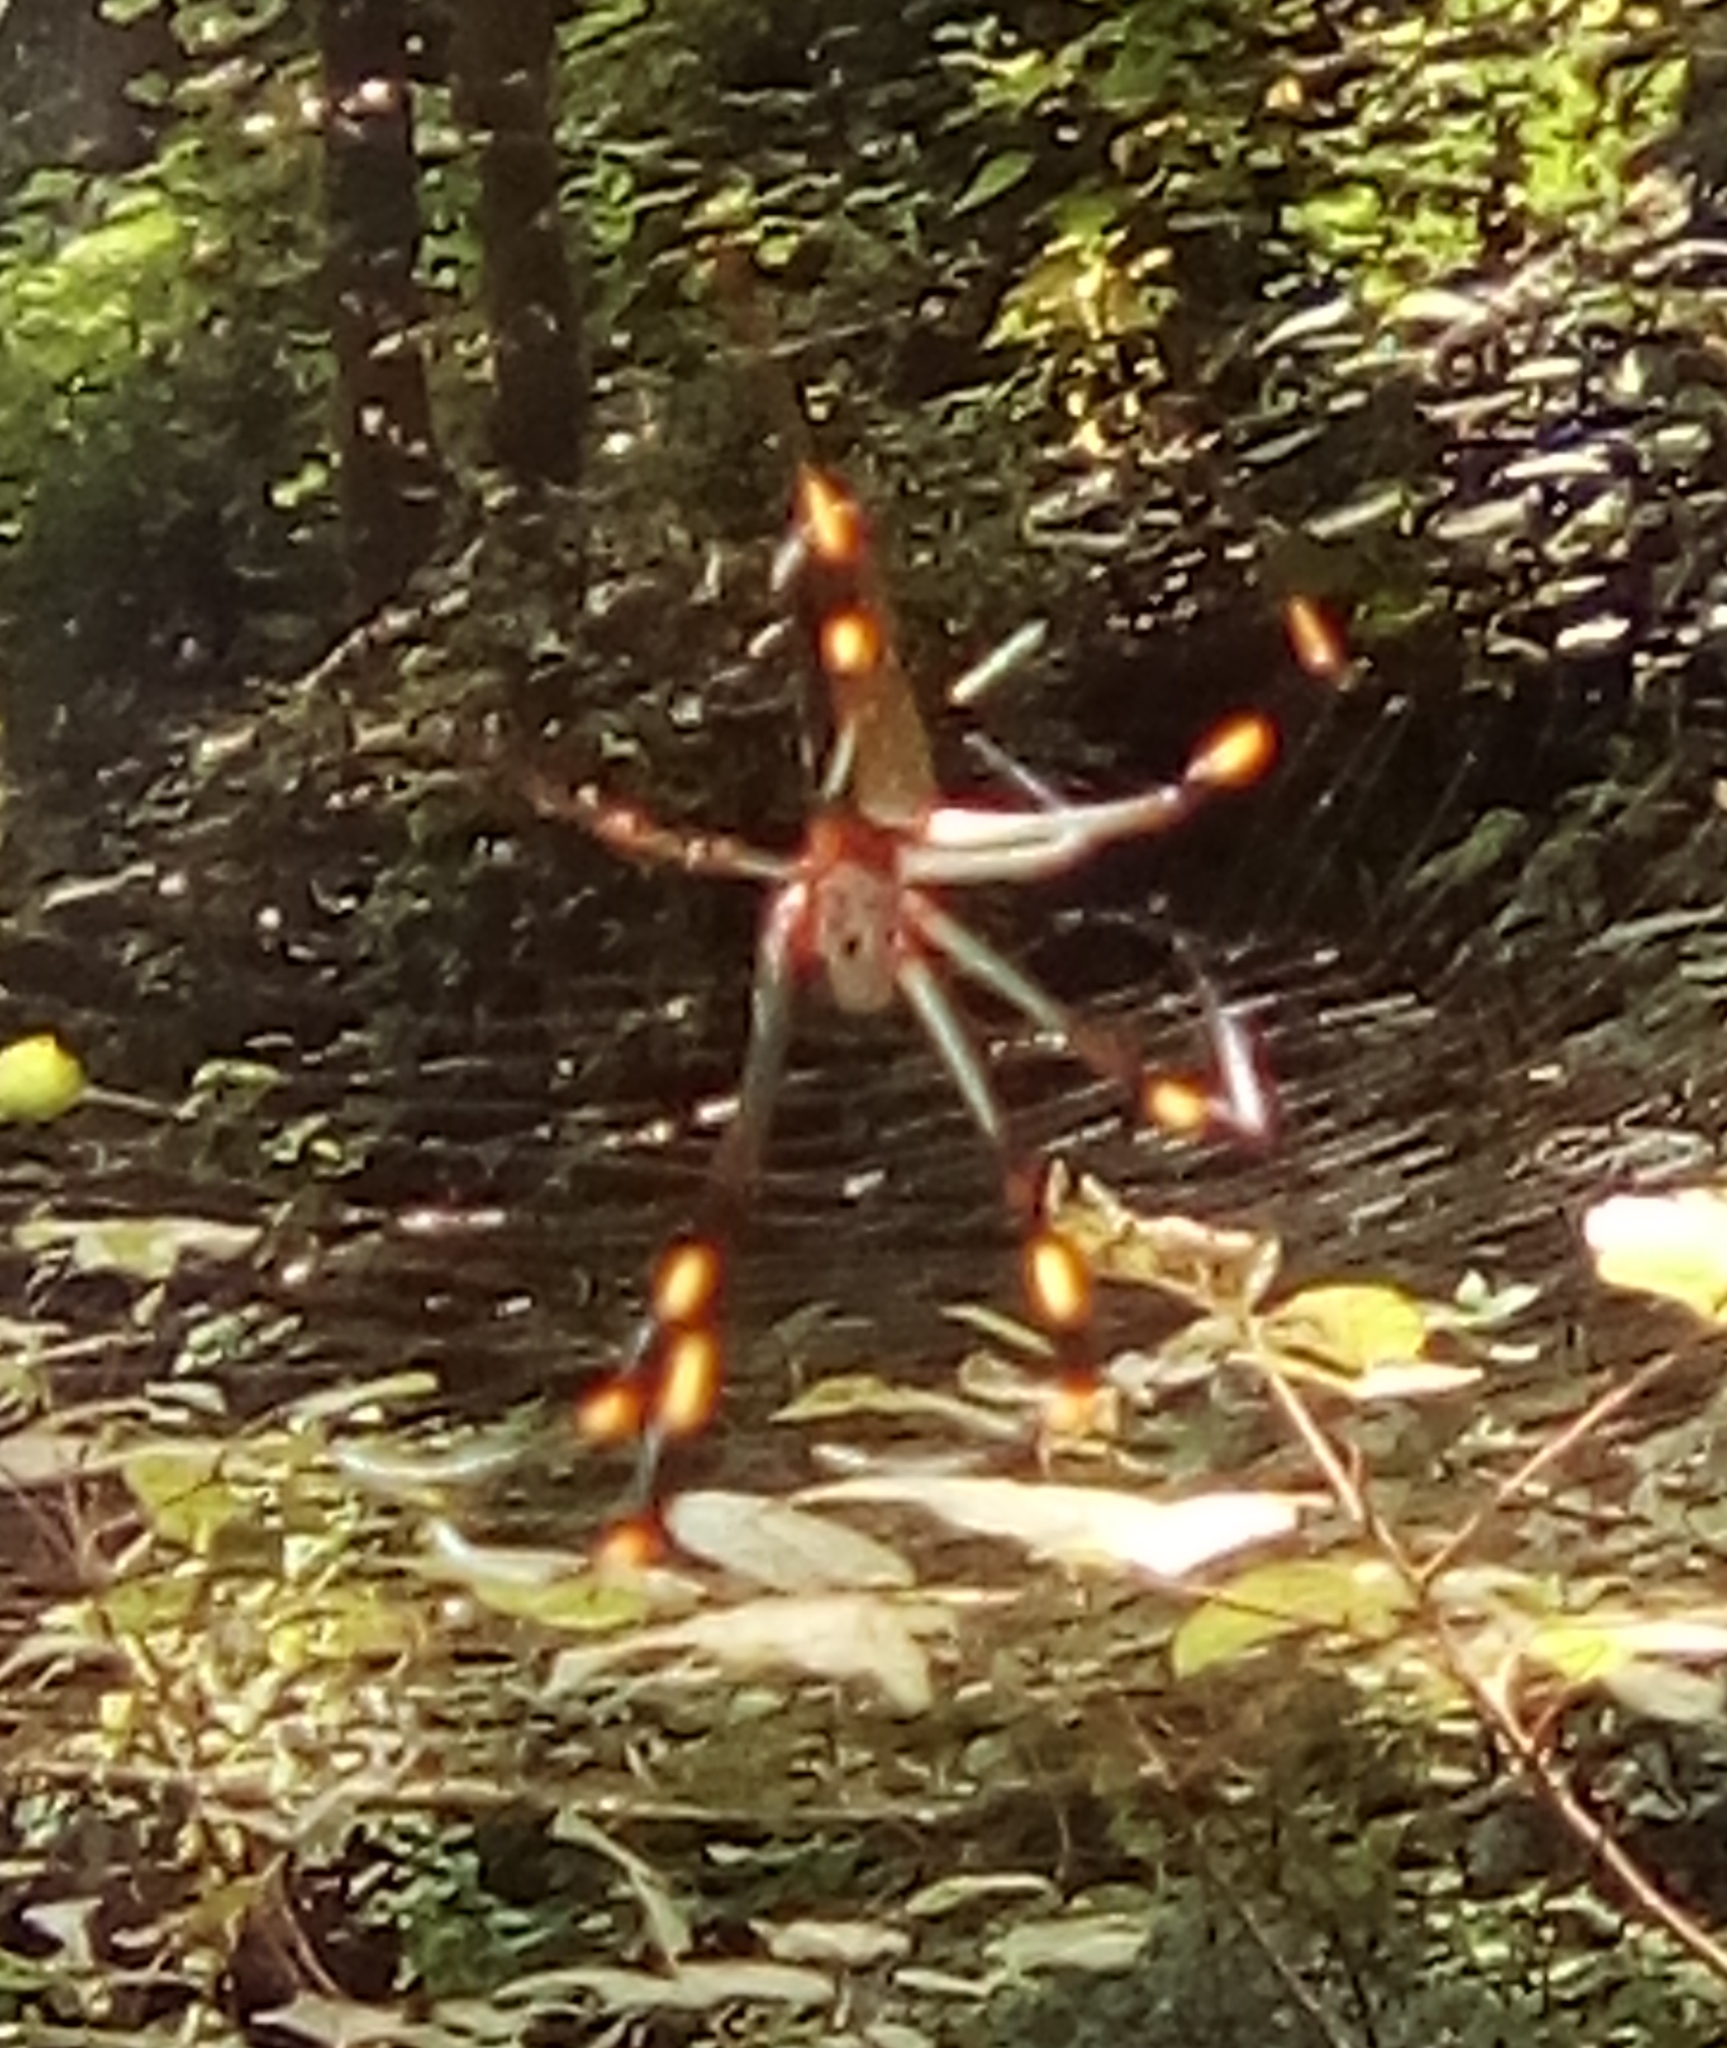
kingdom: Animalia
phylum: Arthropoda
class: Arachnida
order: Araneae
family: Araneidae
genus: Trichonephila
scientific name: Trichonephila clavipes
